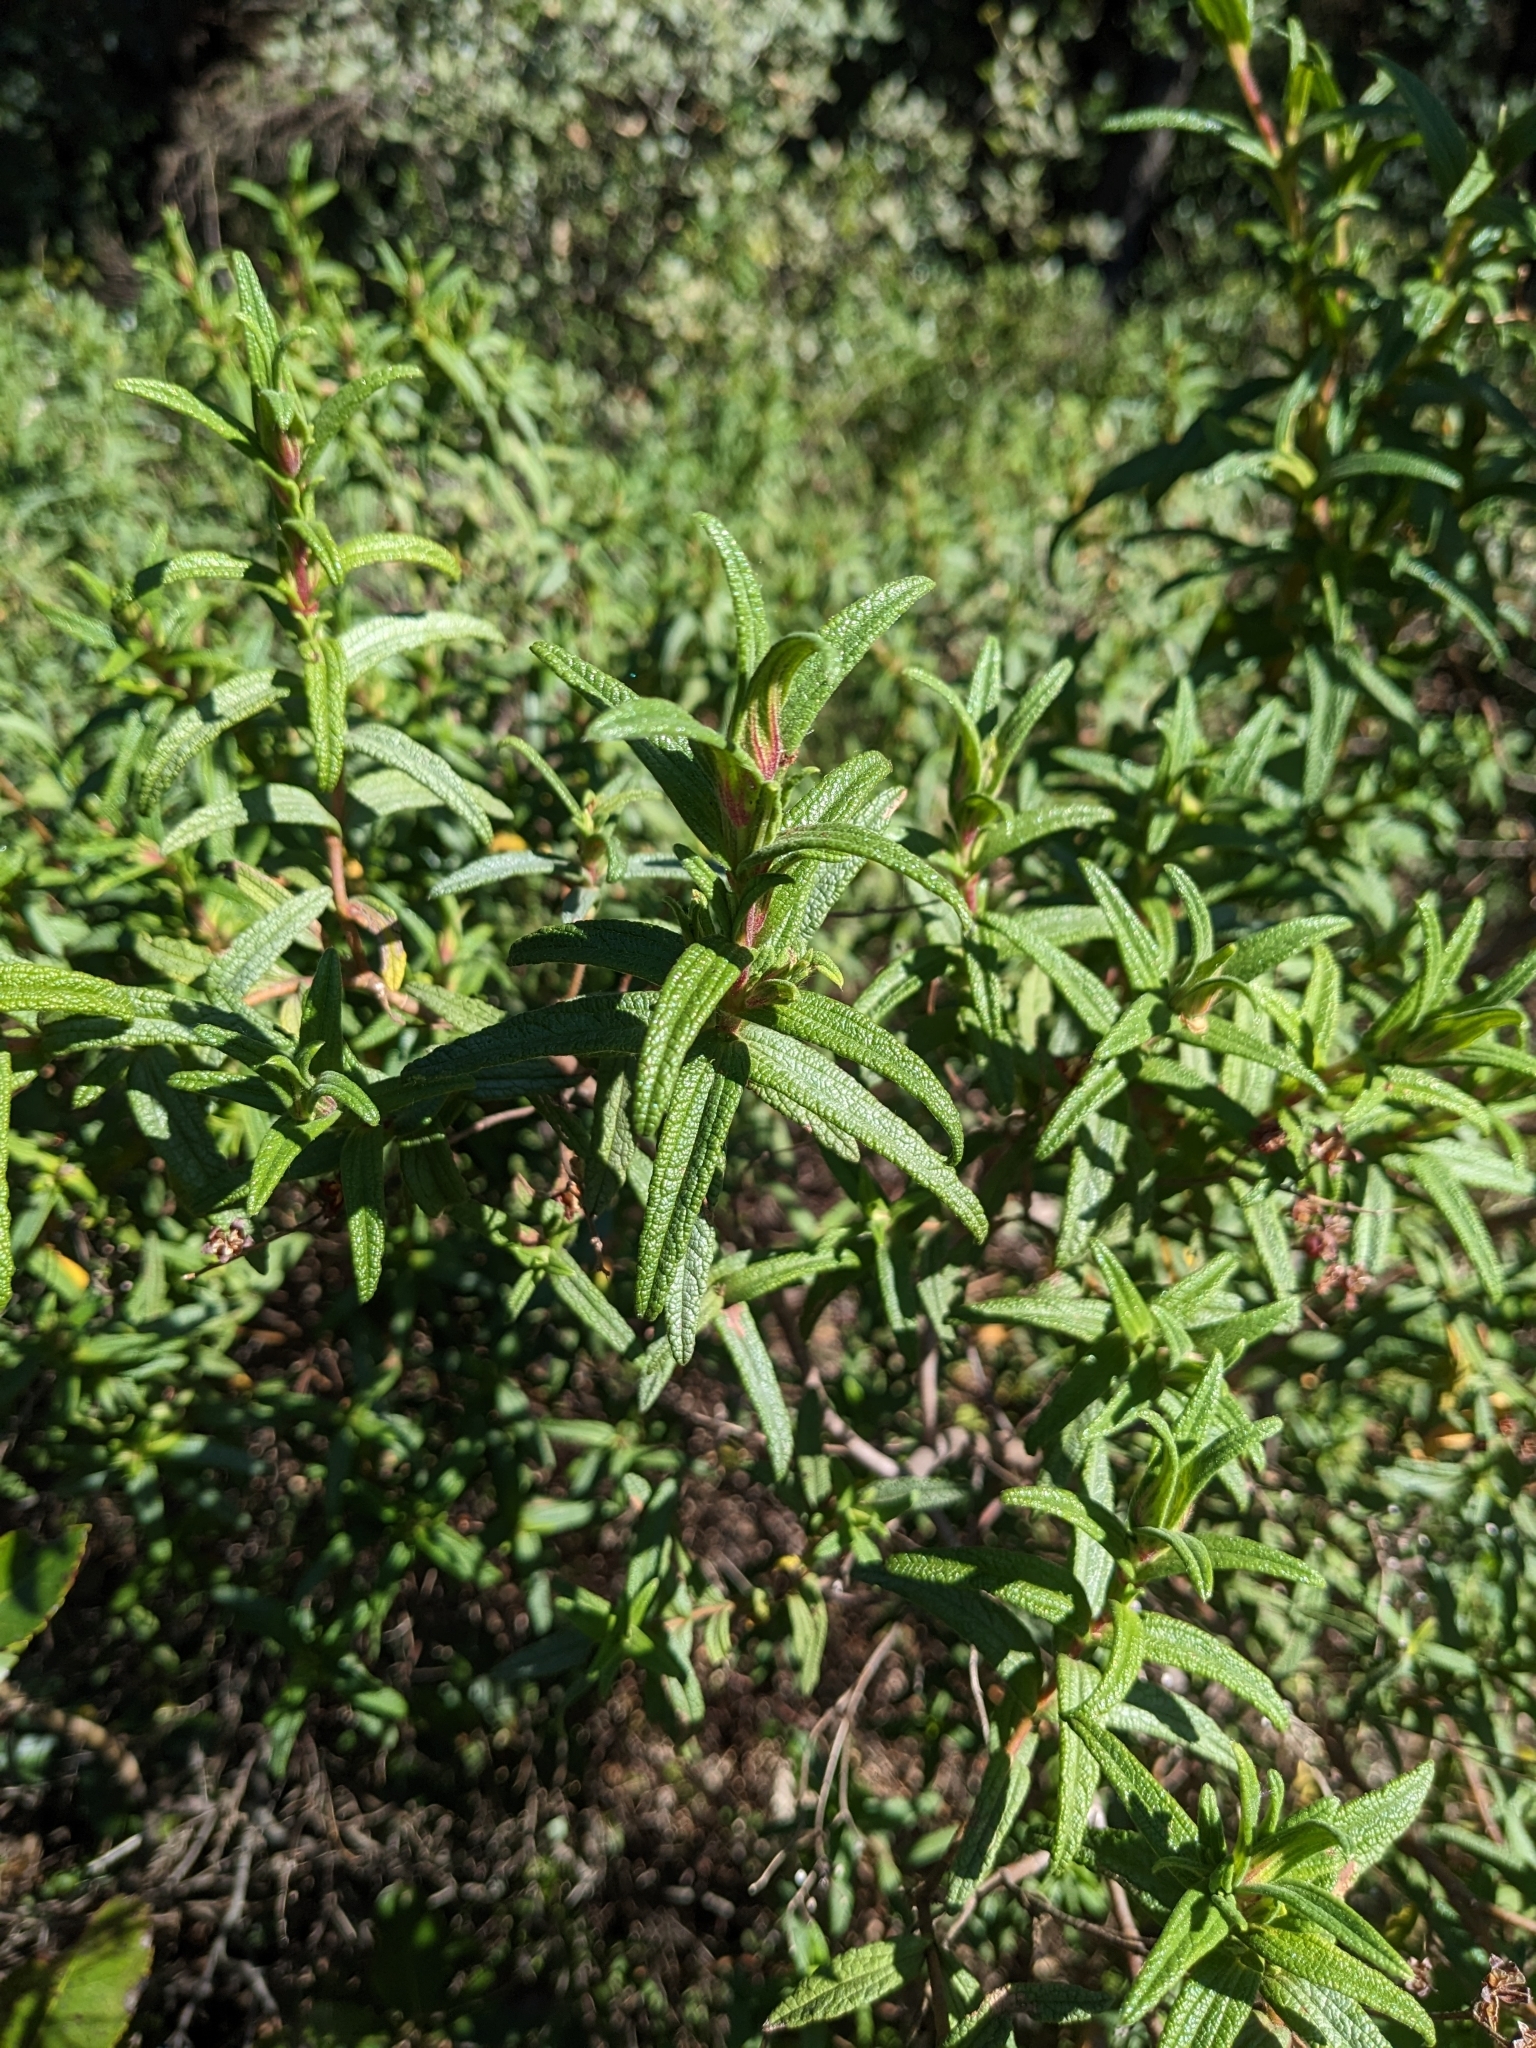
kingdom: Plantae
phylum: Tracheophyta
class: Magnoliopsida
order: Malvales
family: Cistaceae
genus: Cistus
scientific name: Cistus monspeliensis
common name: Montpelier cistus
